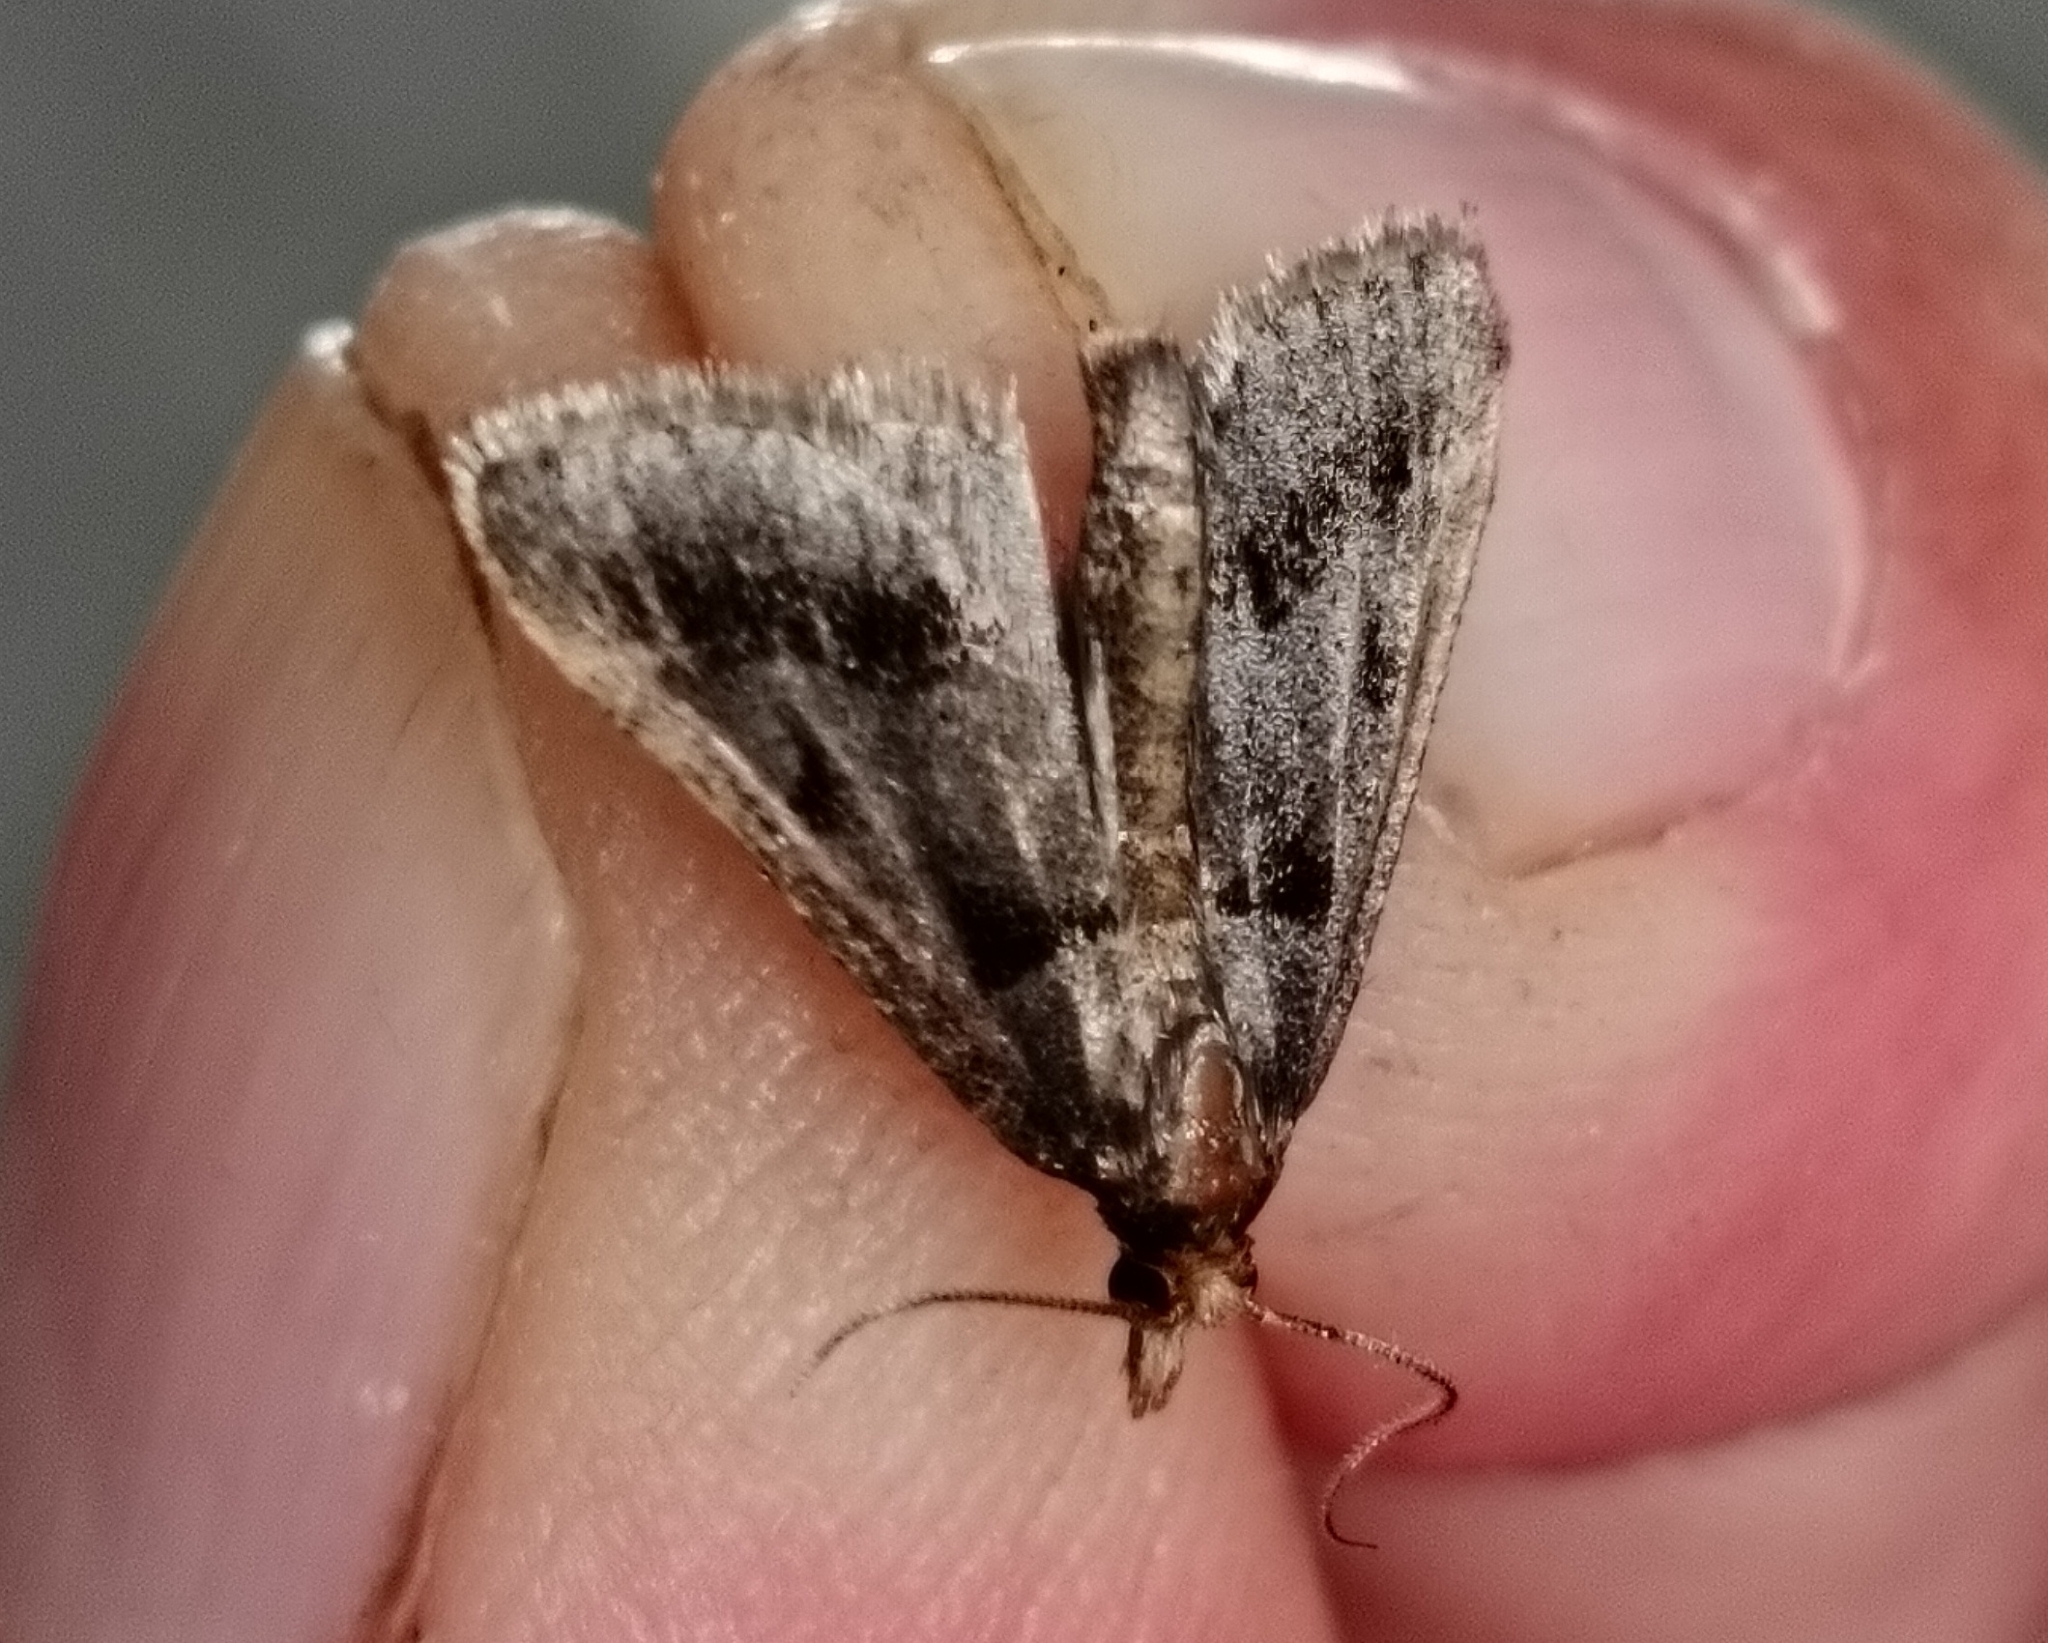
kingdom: Animalia
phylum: Arthropoda
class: Insecta
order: Lepidoptera
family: Pyralidae
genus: Stemmatophora
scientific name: Stemmatophora brunnealis
